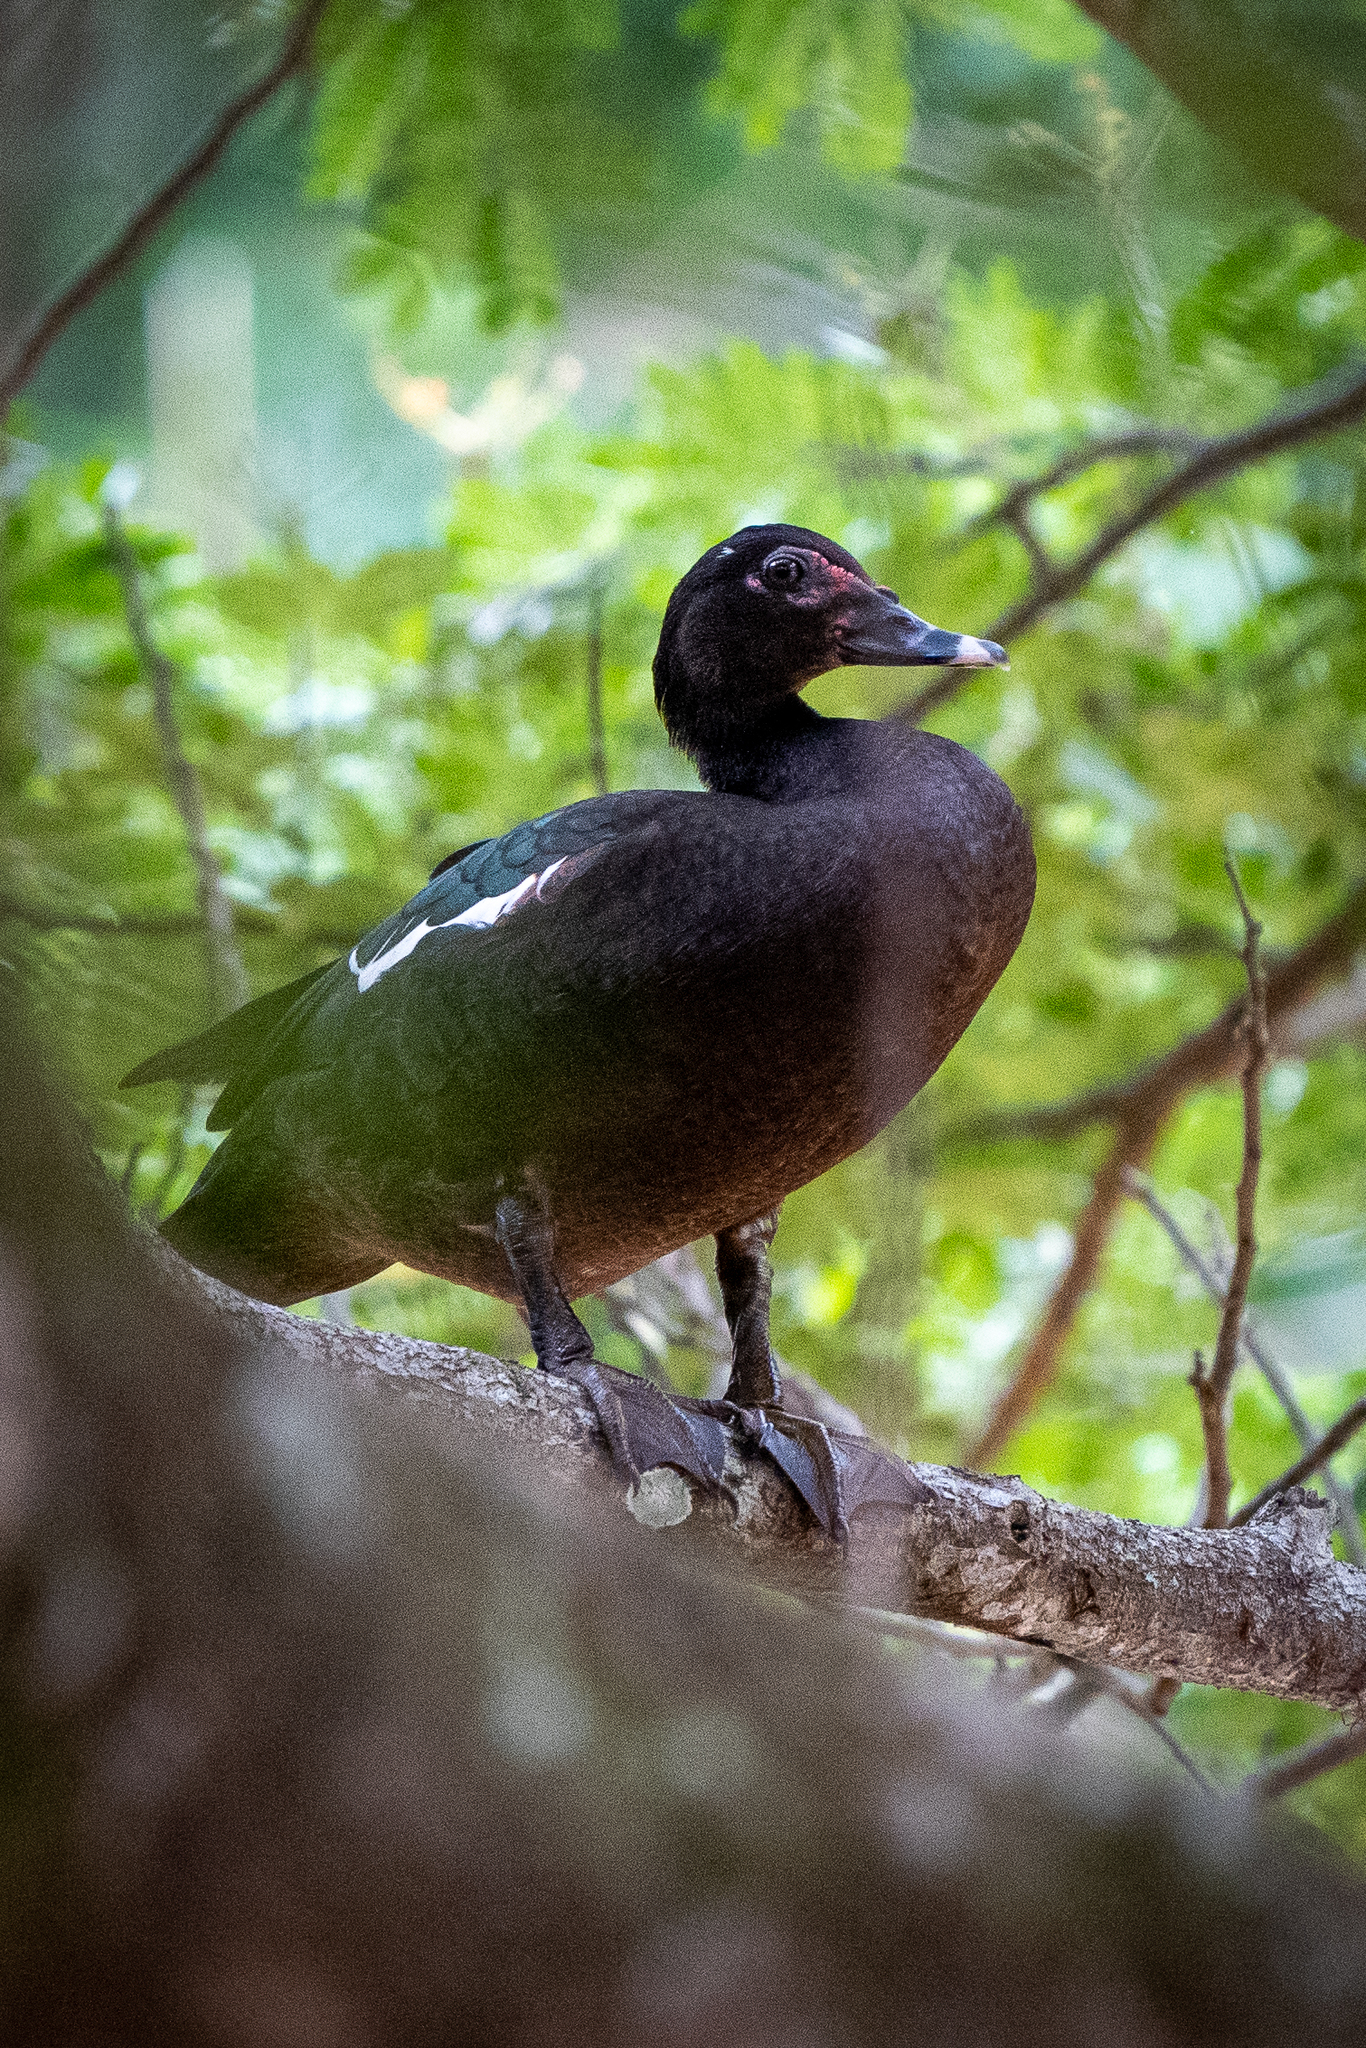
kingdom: Animalia
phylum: Chordata
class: Aves
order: Anseriformes
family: Anatidae
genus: Cairina
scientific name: Cairina moschata
